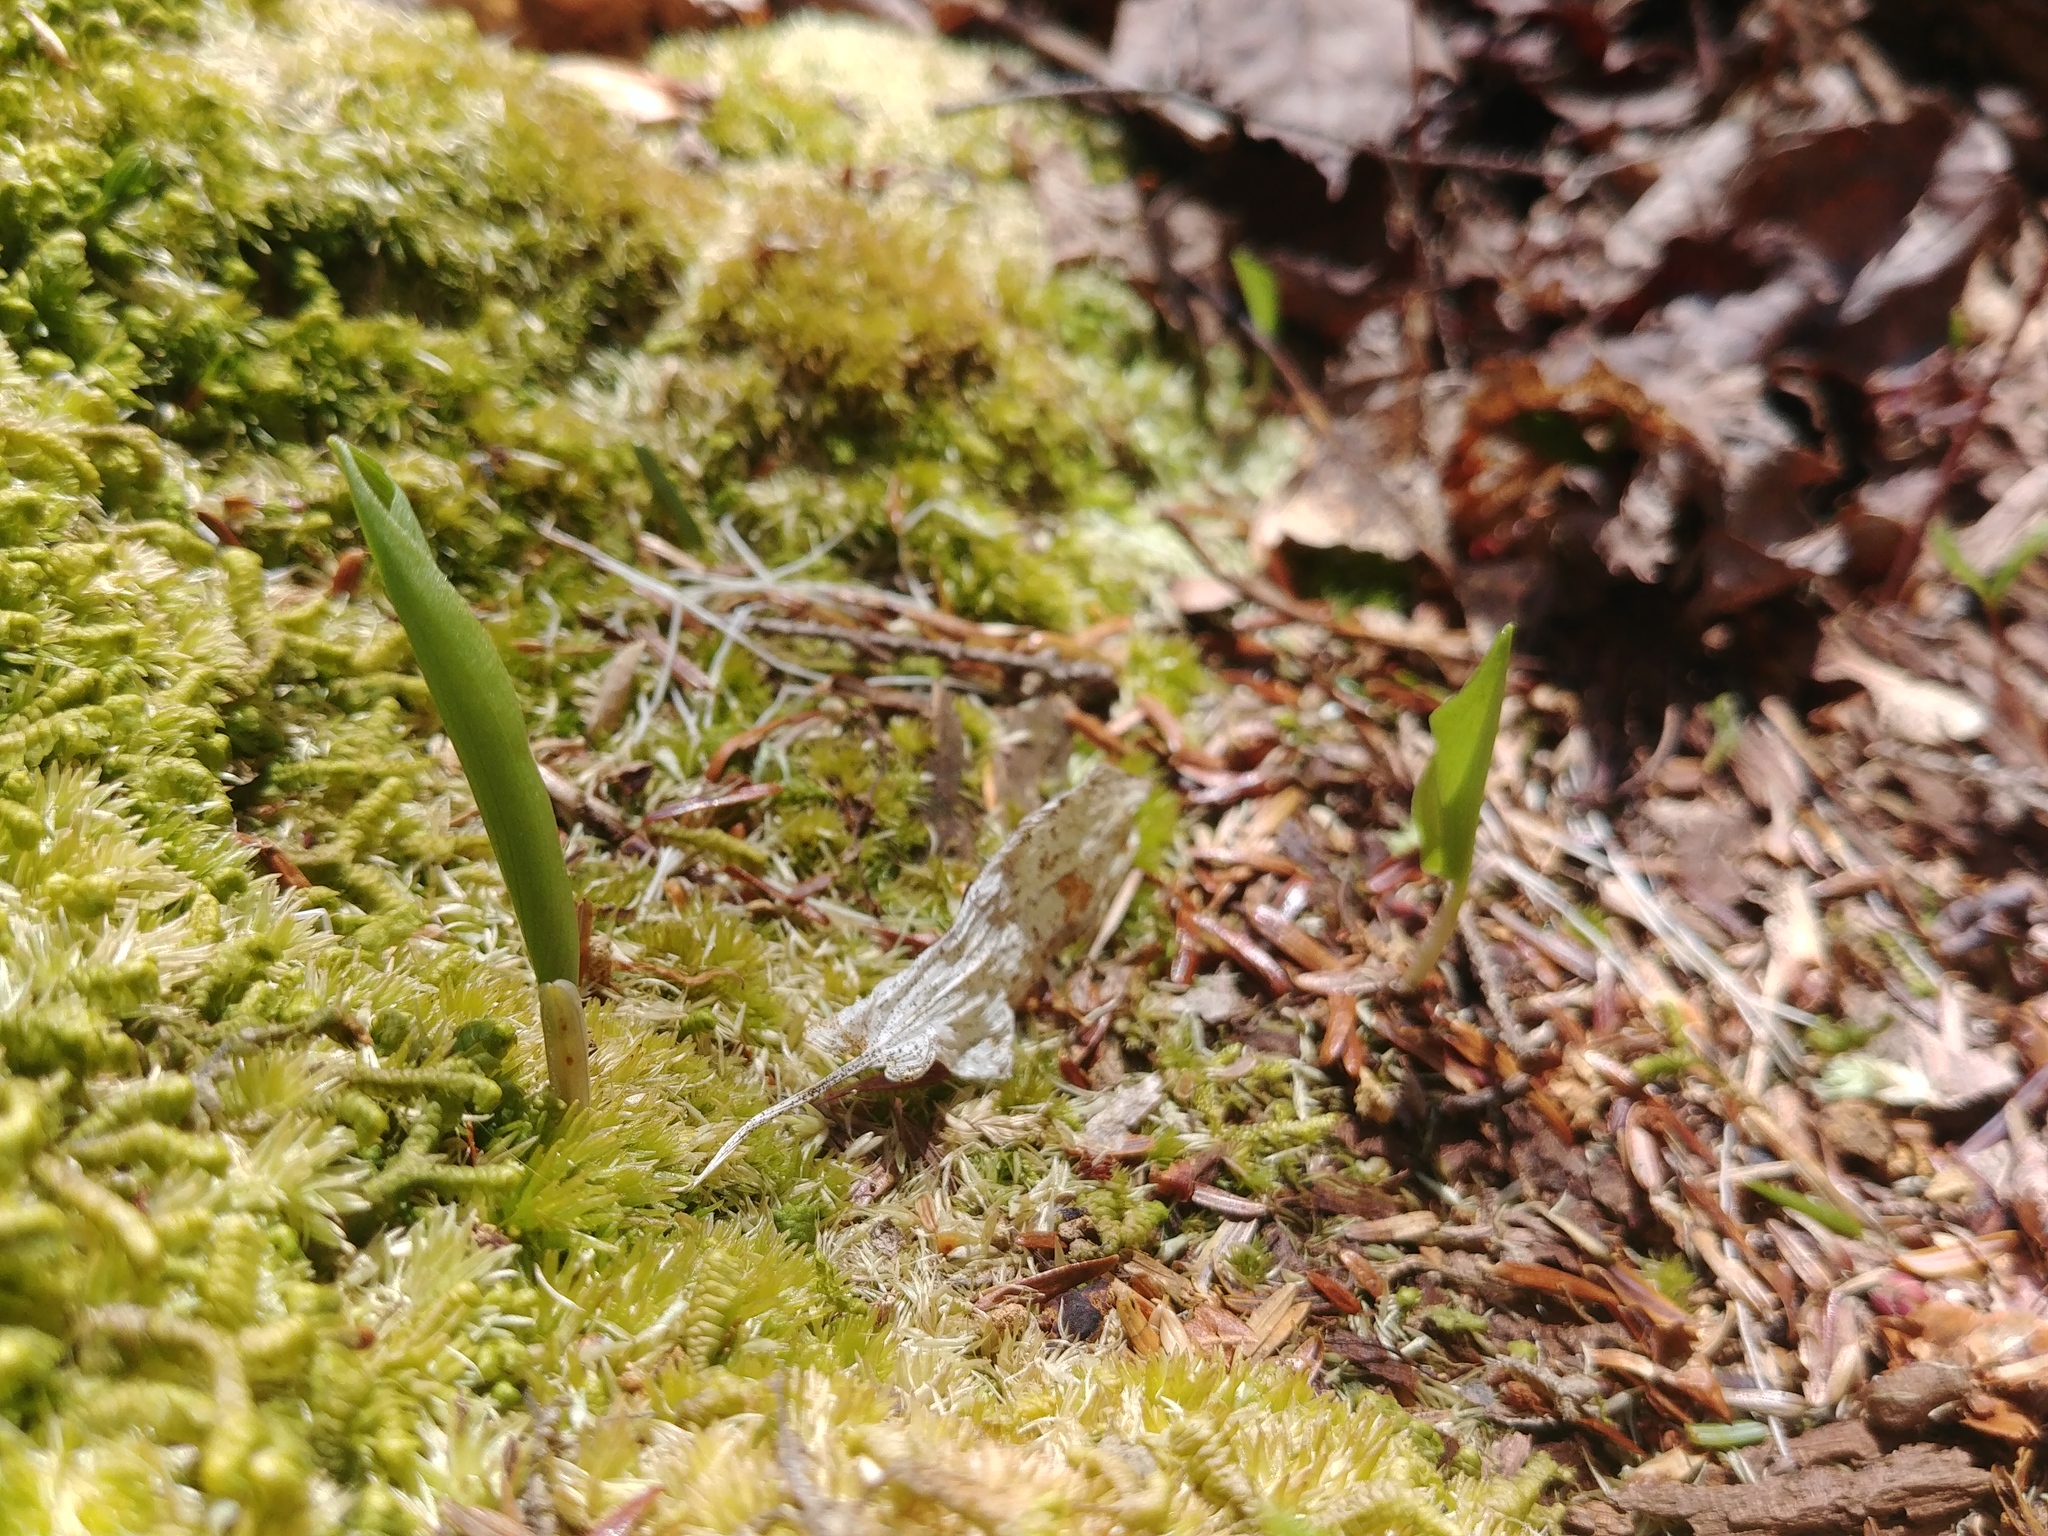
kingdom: Plantae
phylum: Tracheophyta
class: Liliopsida
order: Asparagales
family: Asparagaceae
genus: Maianthemum
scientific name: Maianthemum canadense
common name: False lily-of-the-valley
